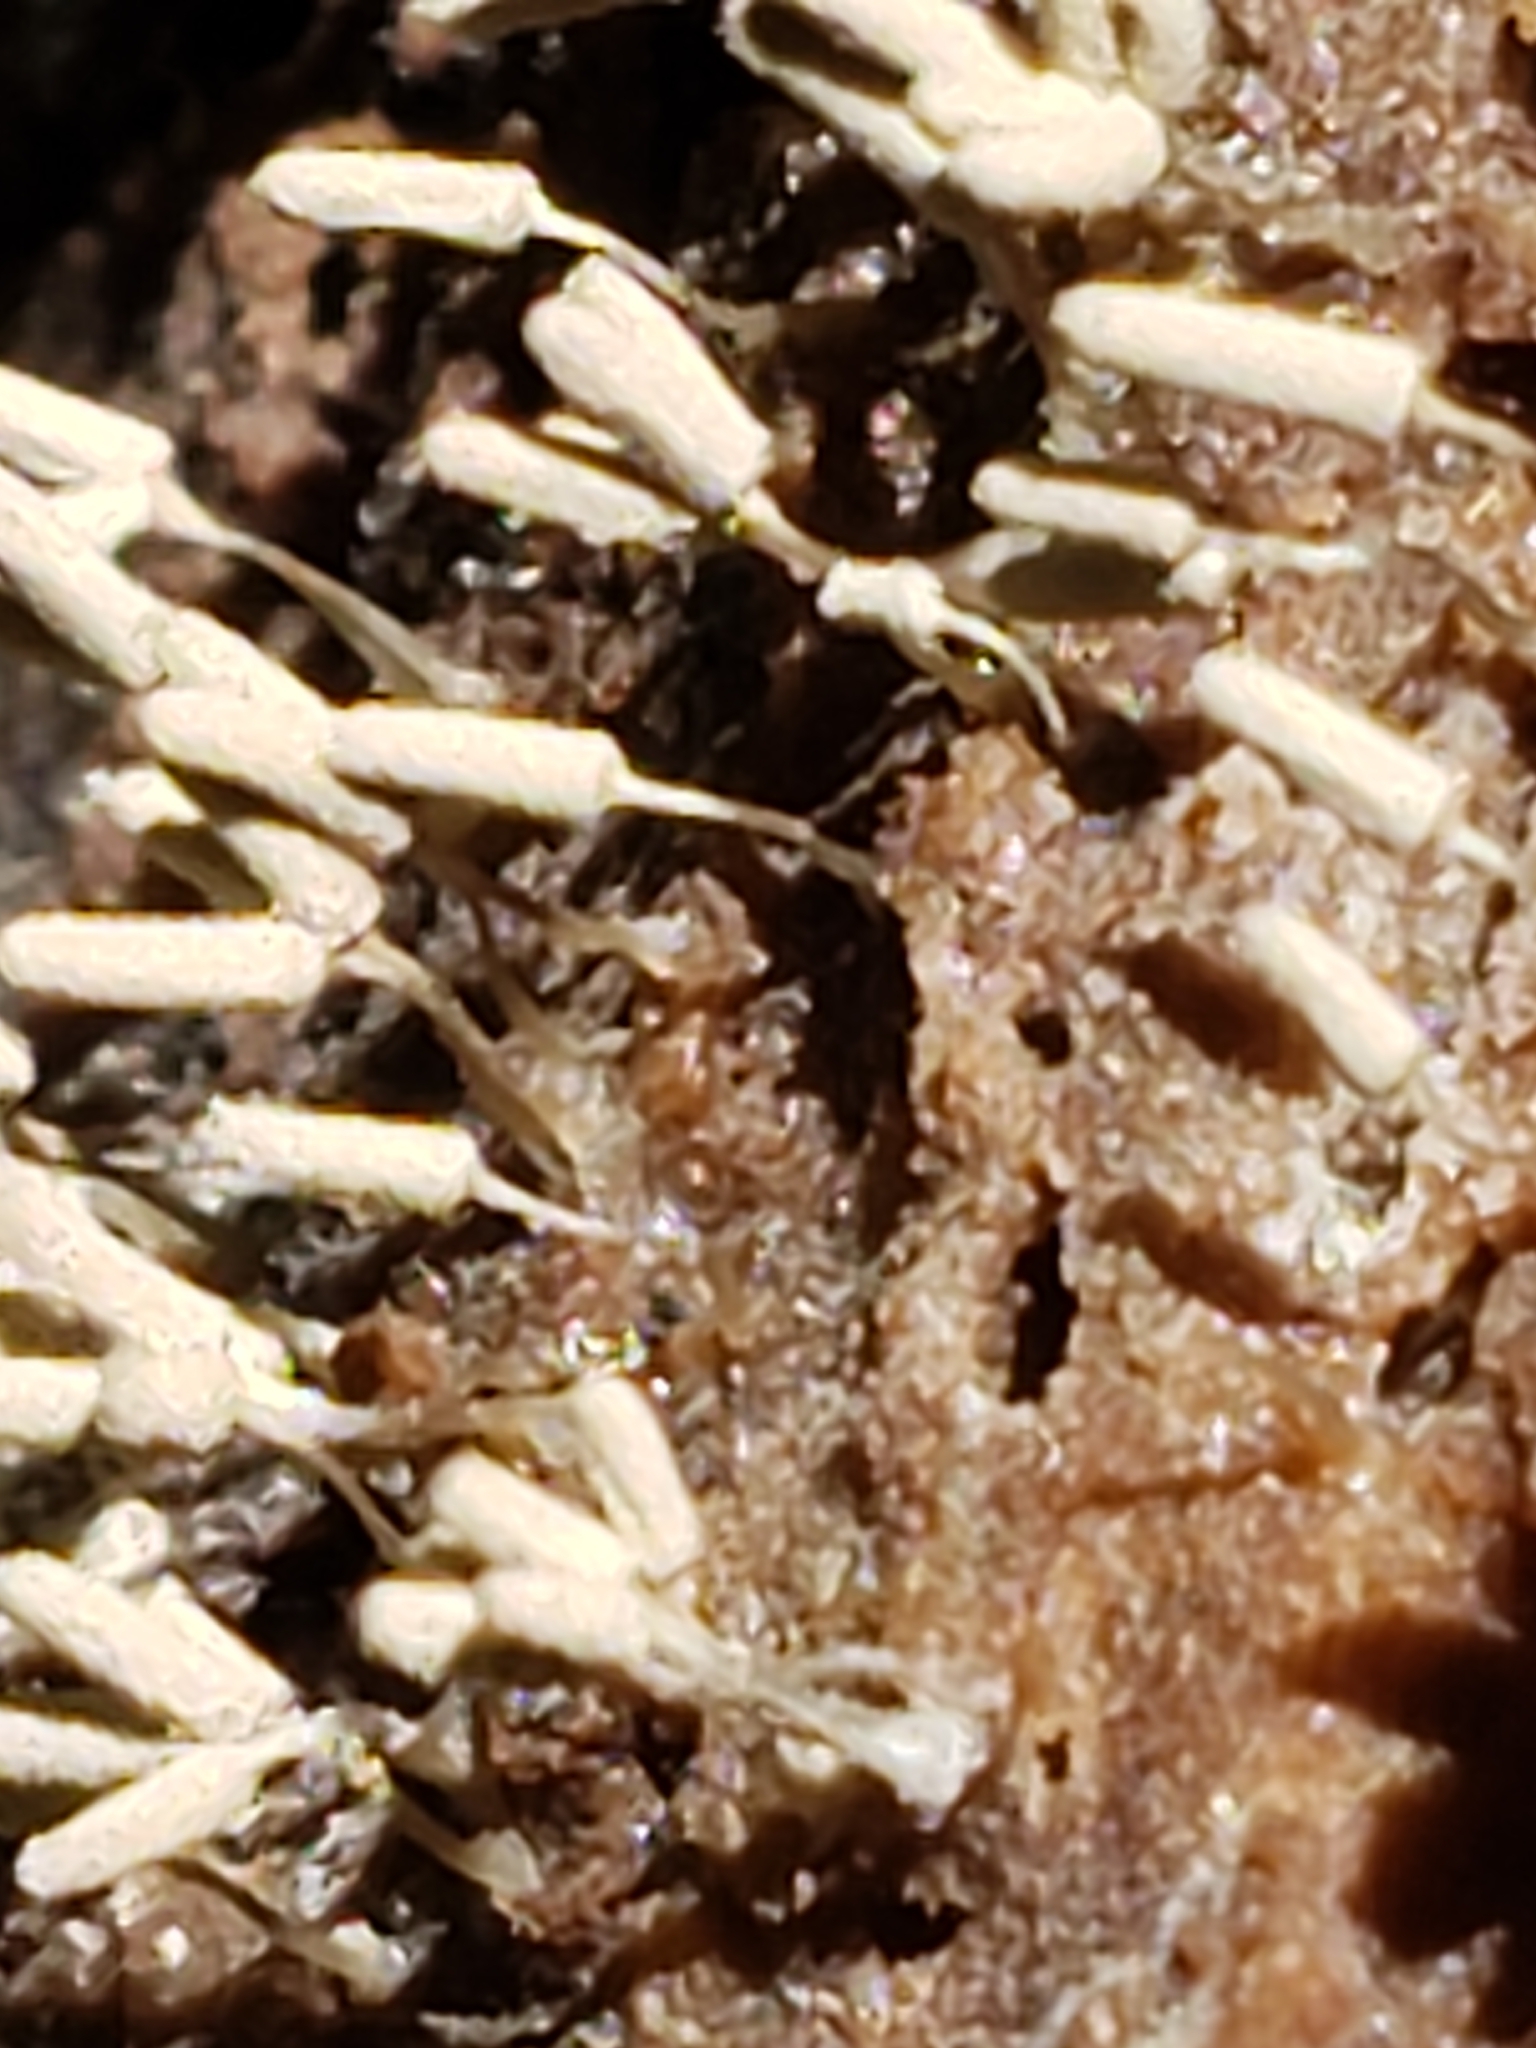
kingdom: Protozoa
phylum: Mycetozoa
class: Myxomycetes
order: Trichiales
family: Arcyriaceae
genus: Arcyria
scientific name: Arcyria cinerea
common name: White carnival candy slime mold
